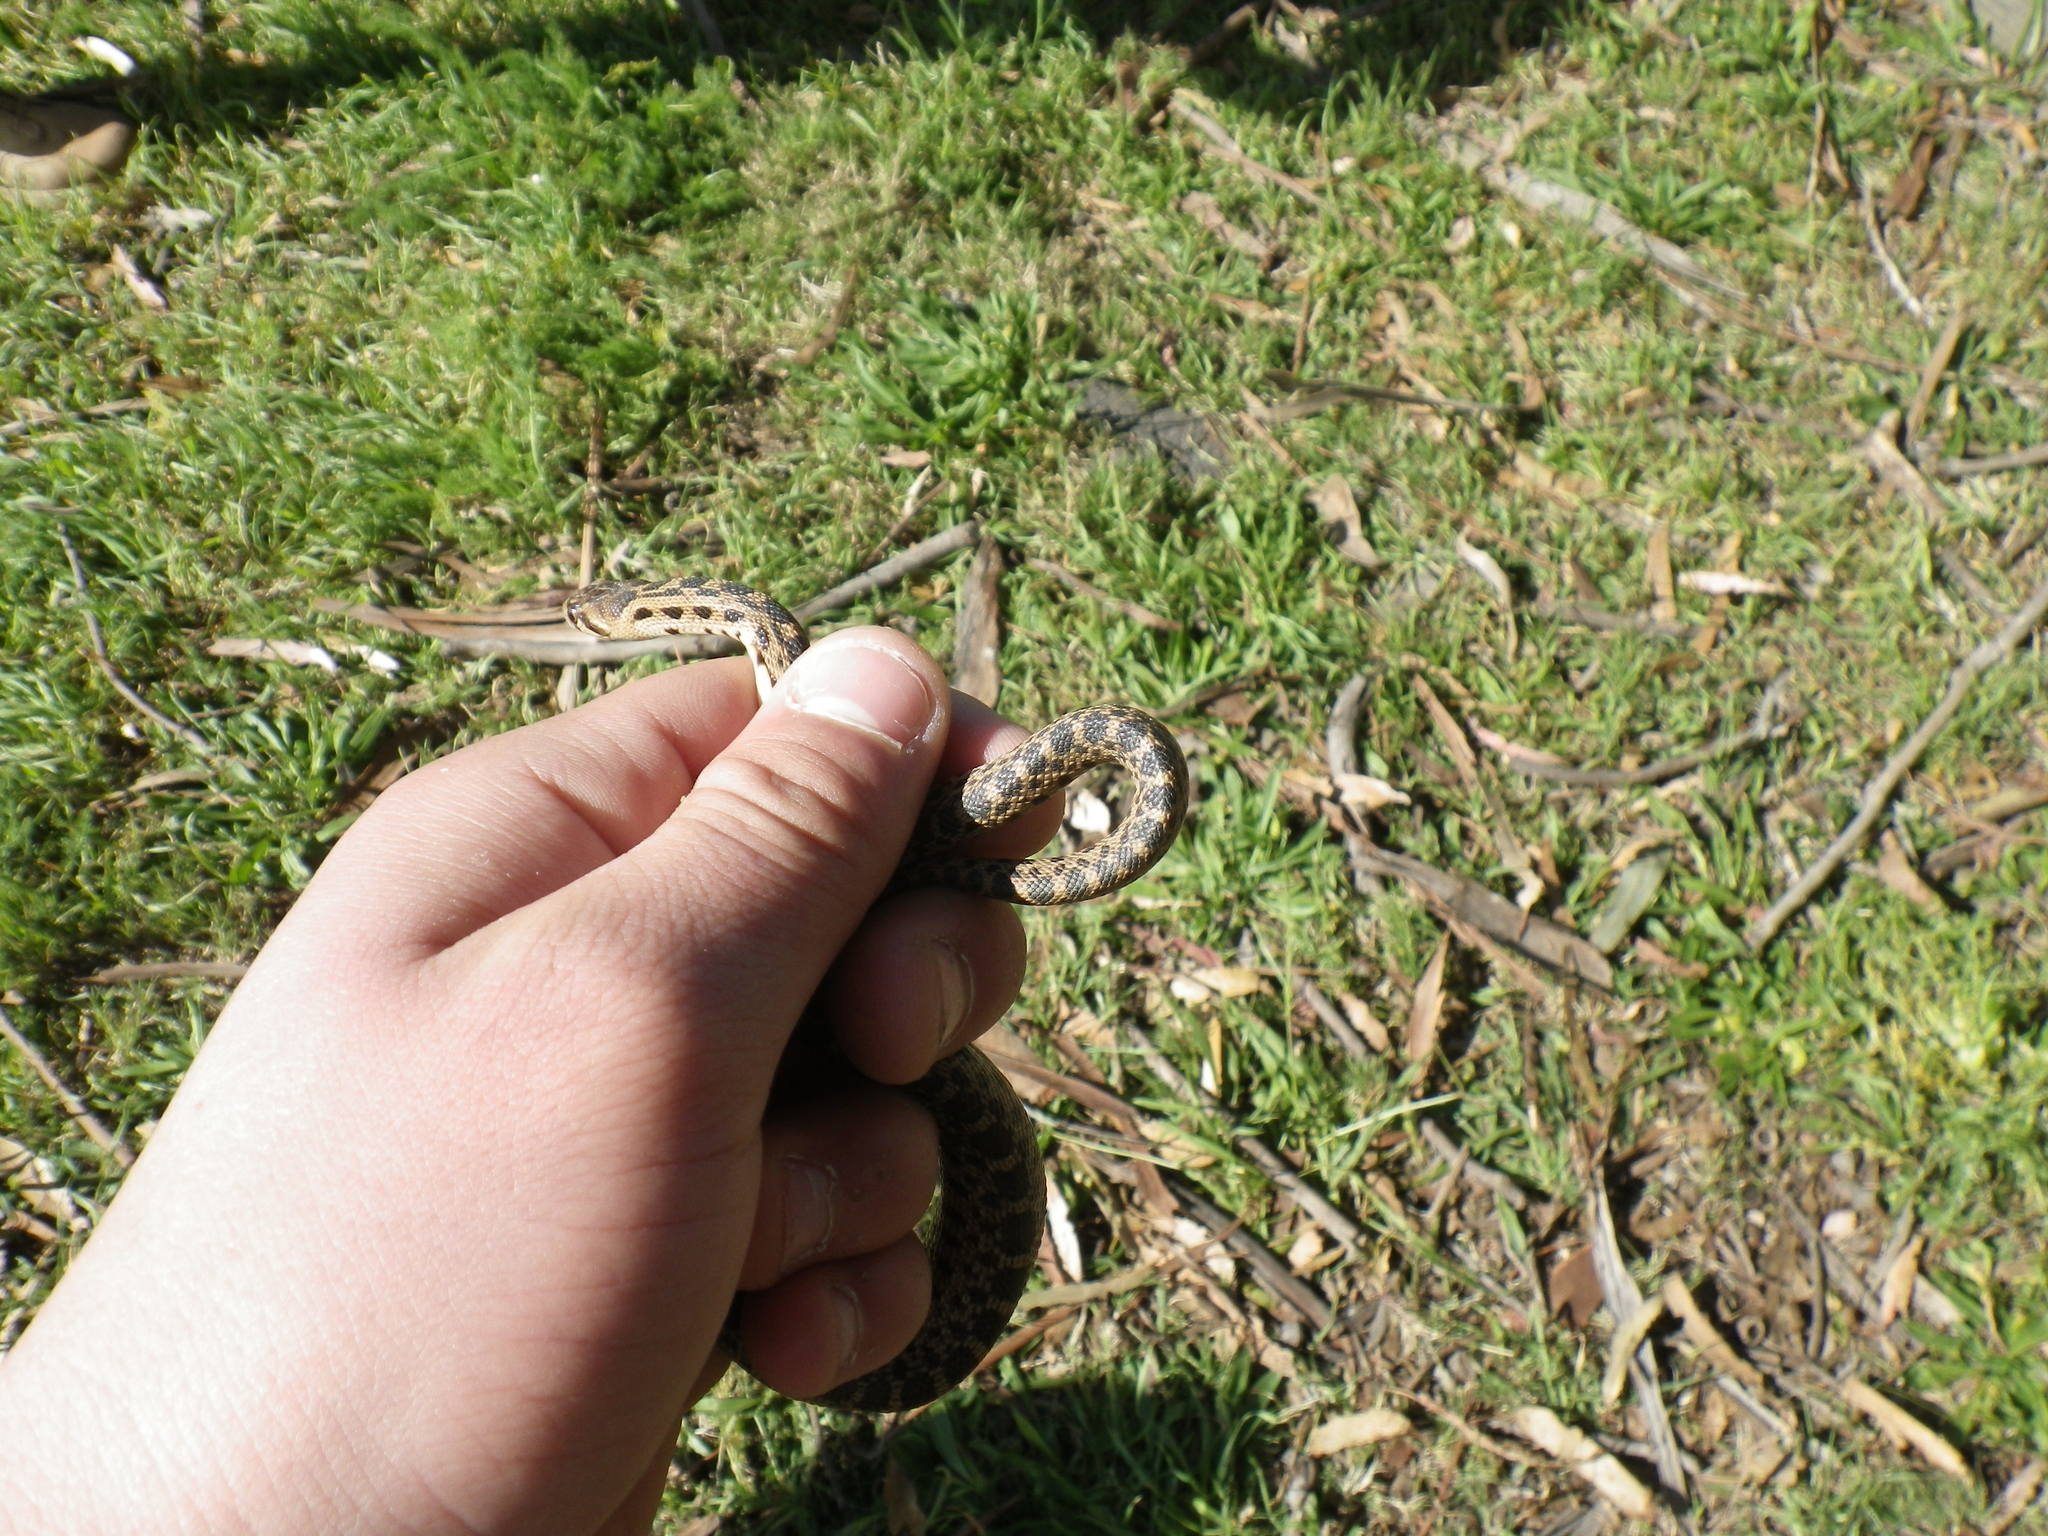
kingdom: Animalia
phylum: Chordata
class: Squamata
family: Colubridae
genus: Pituophis
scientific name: Pituophis catenifer
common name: Gopher snake
